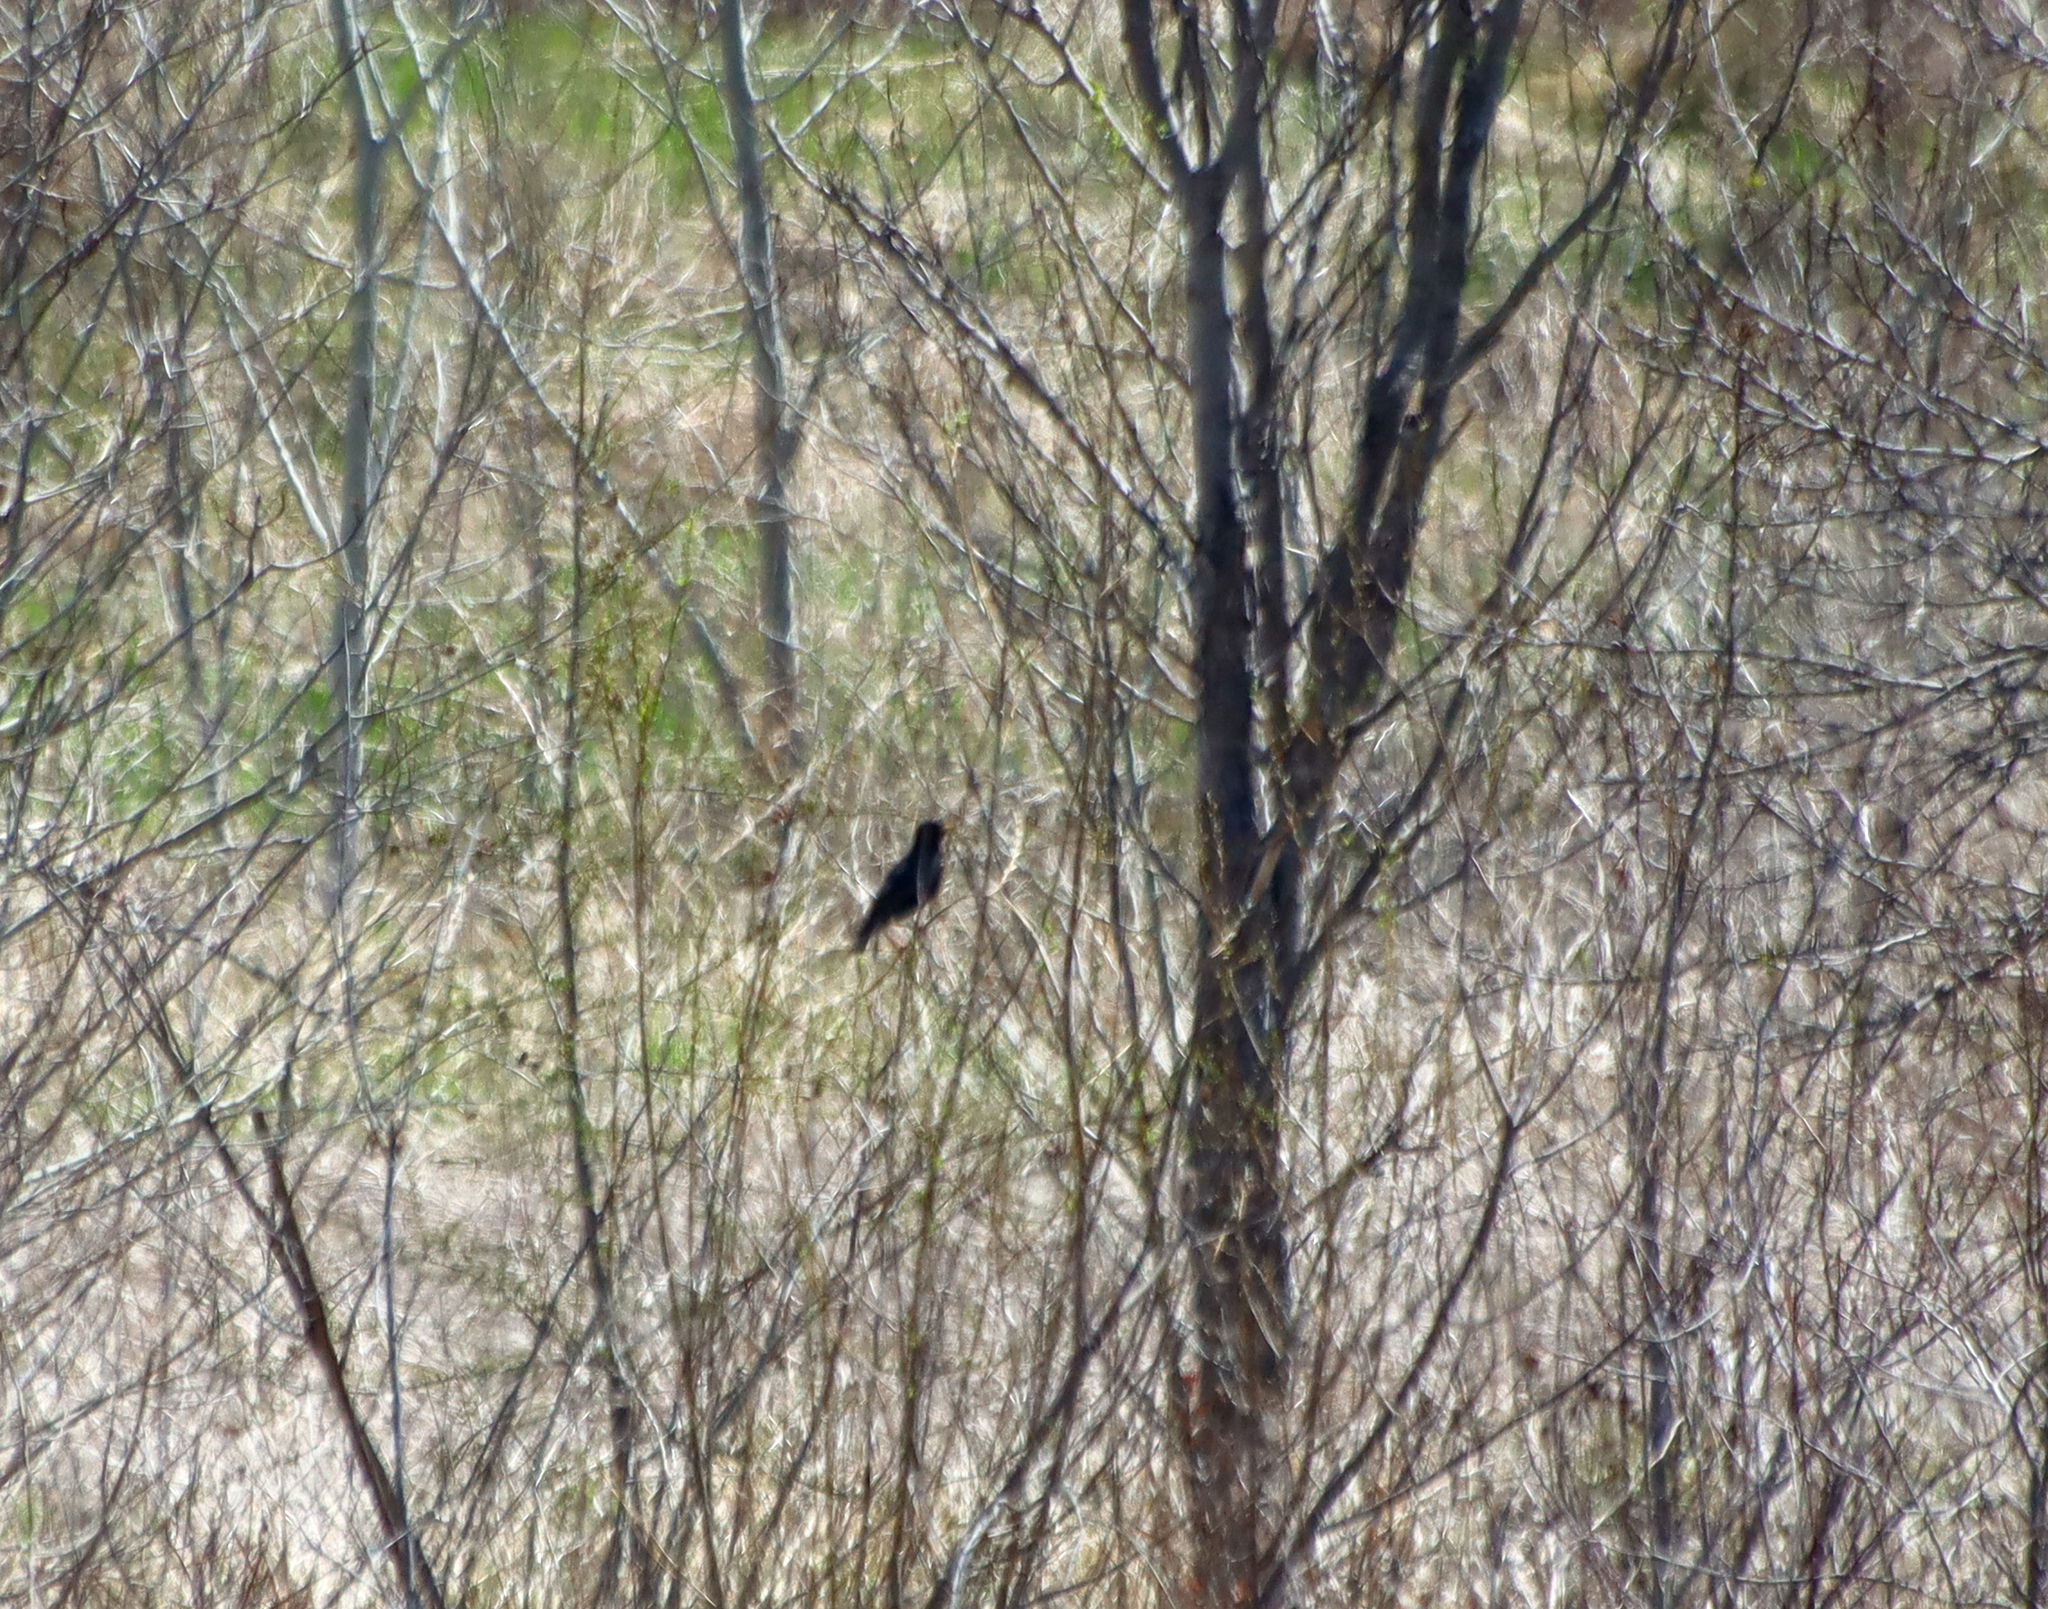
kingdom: Animalia
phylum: Chordata
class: Aves
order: Passeriformes
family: Sturnidae
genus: Sturnus
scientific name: Sturnus vulgaris
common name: Common starling
